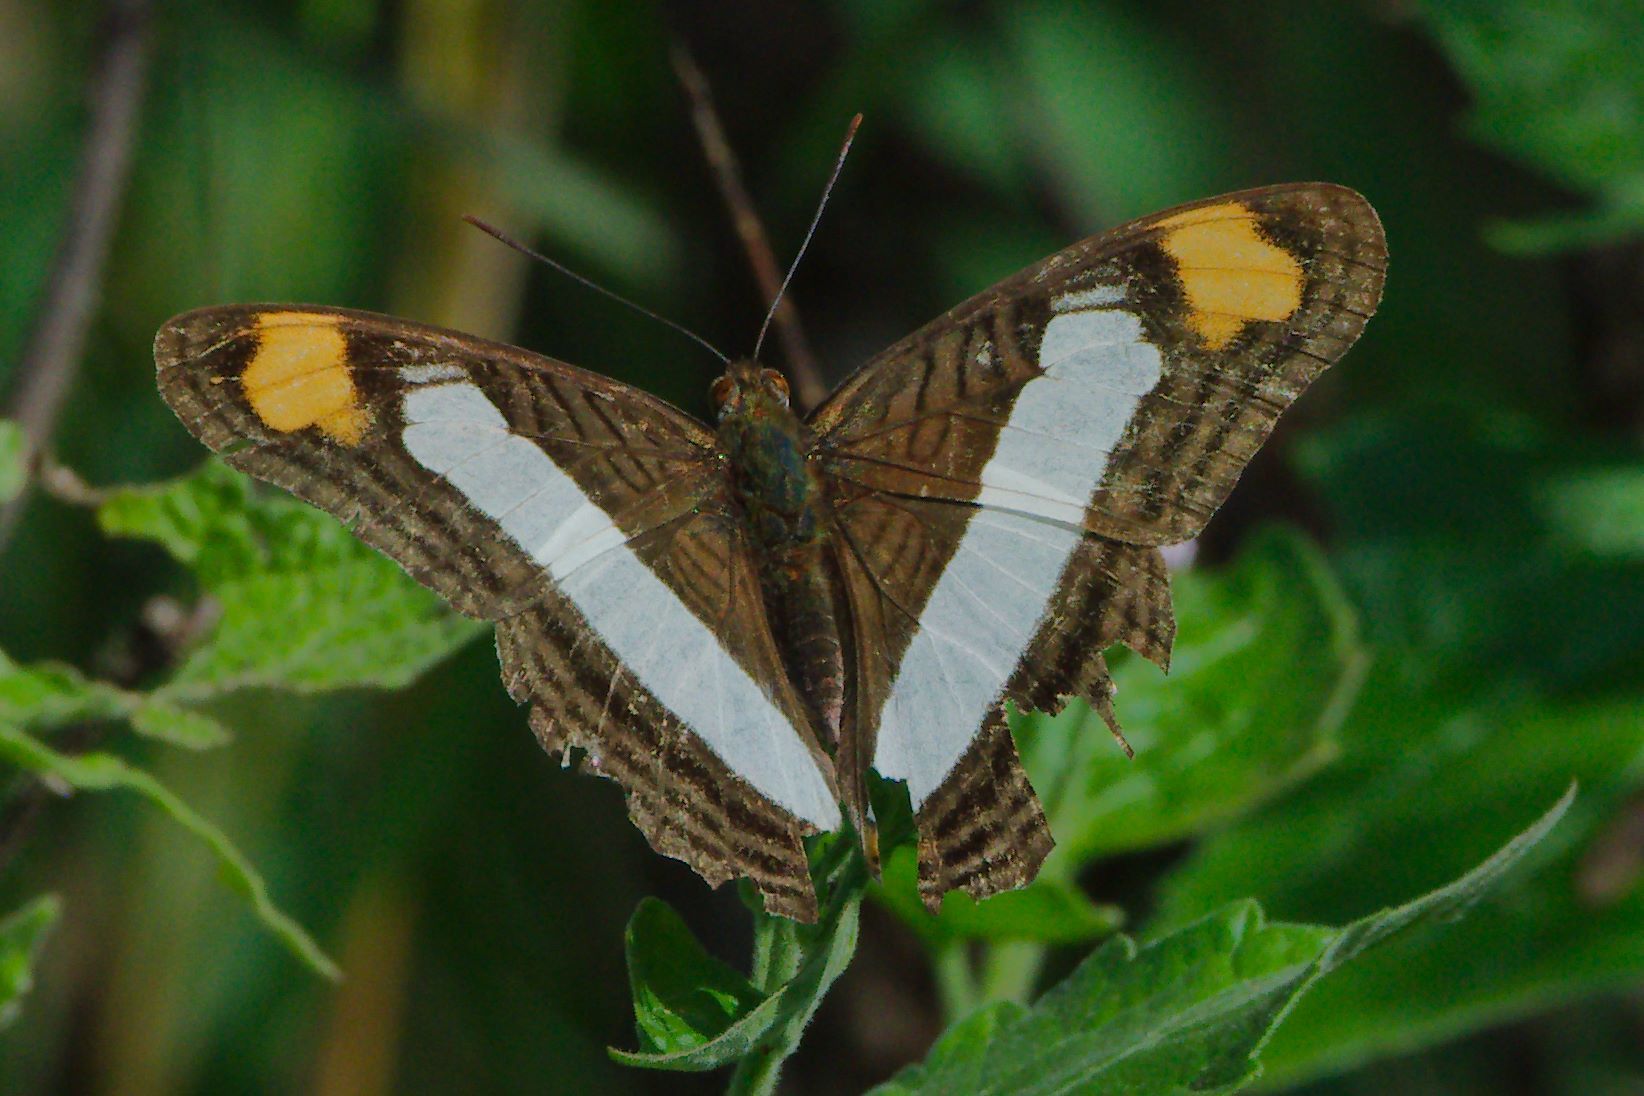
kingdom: Animalia
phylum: Arthropoda
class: Insecta
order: Lepidoptera
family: Nymphalidae
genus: Limenitis
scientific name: Limenitis Adelpha basiloides
